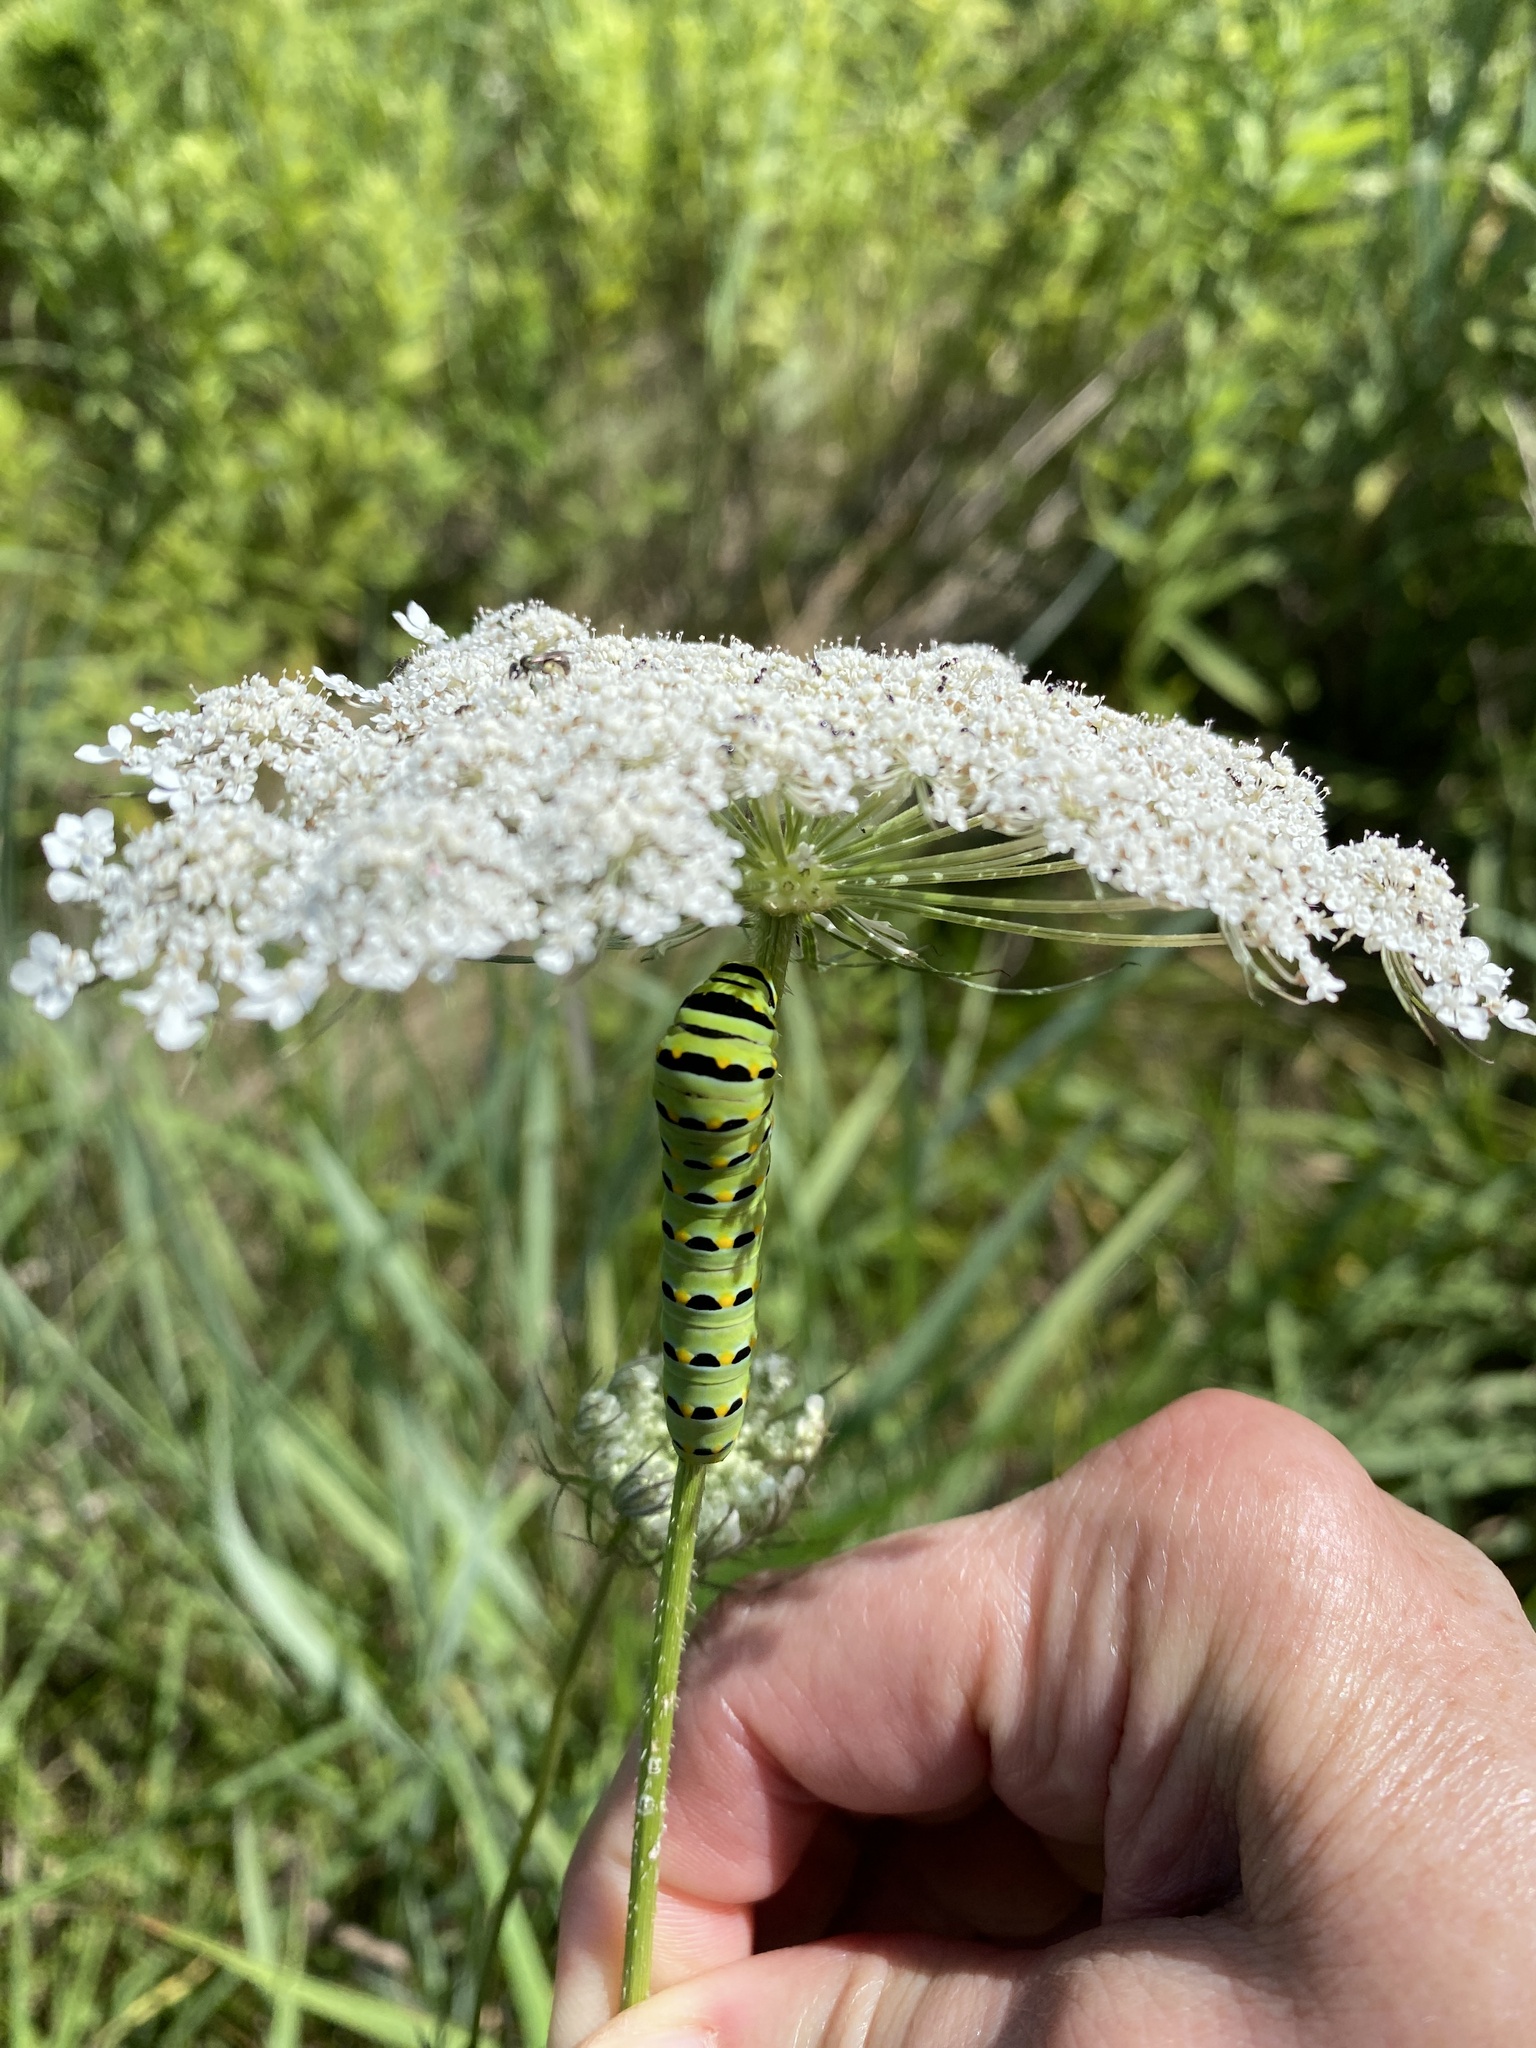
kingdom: Animalia
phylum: Arthropoda
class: Insecta
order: Lepidoptera
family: Papilionidae
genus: Papilio
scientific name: Papilio polyxenes
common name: Black swallowtail
